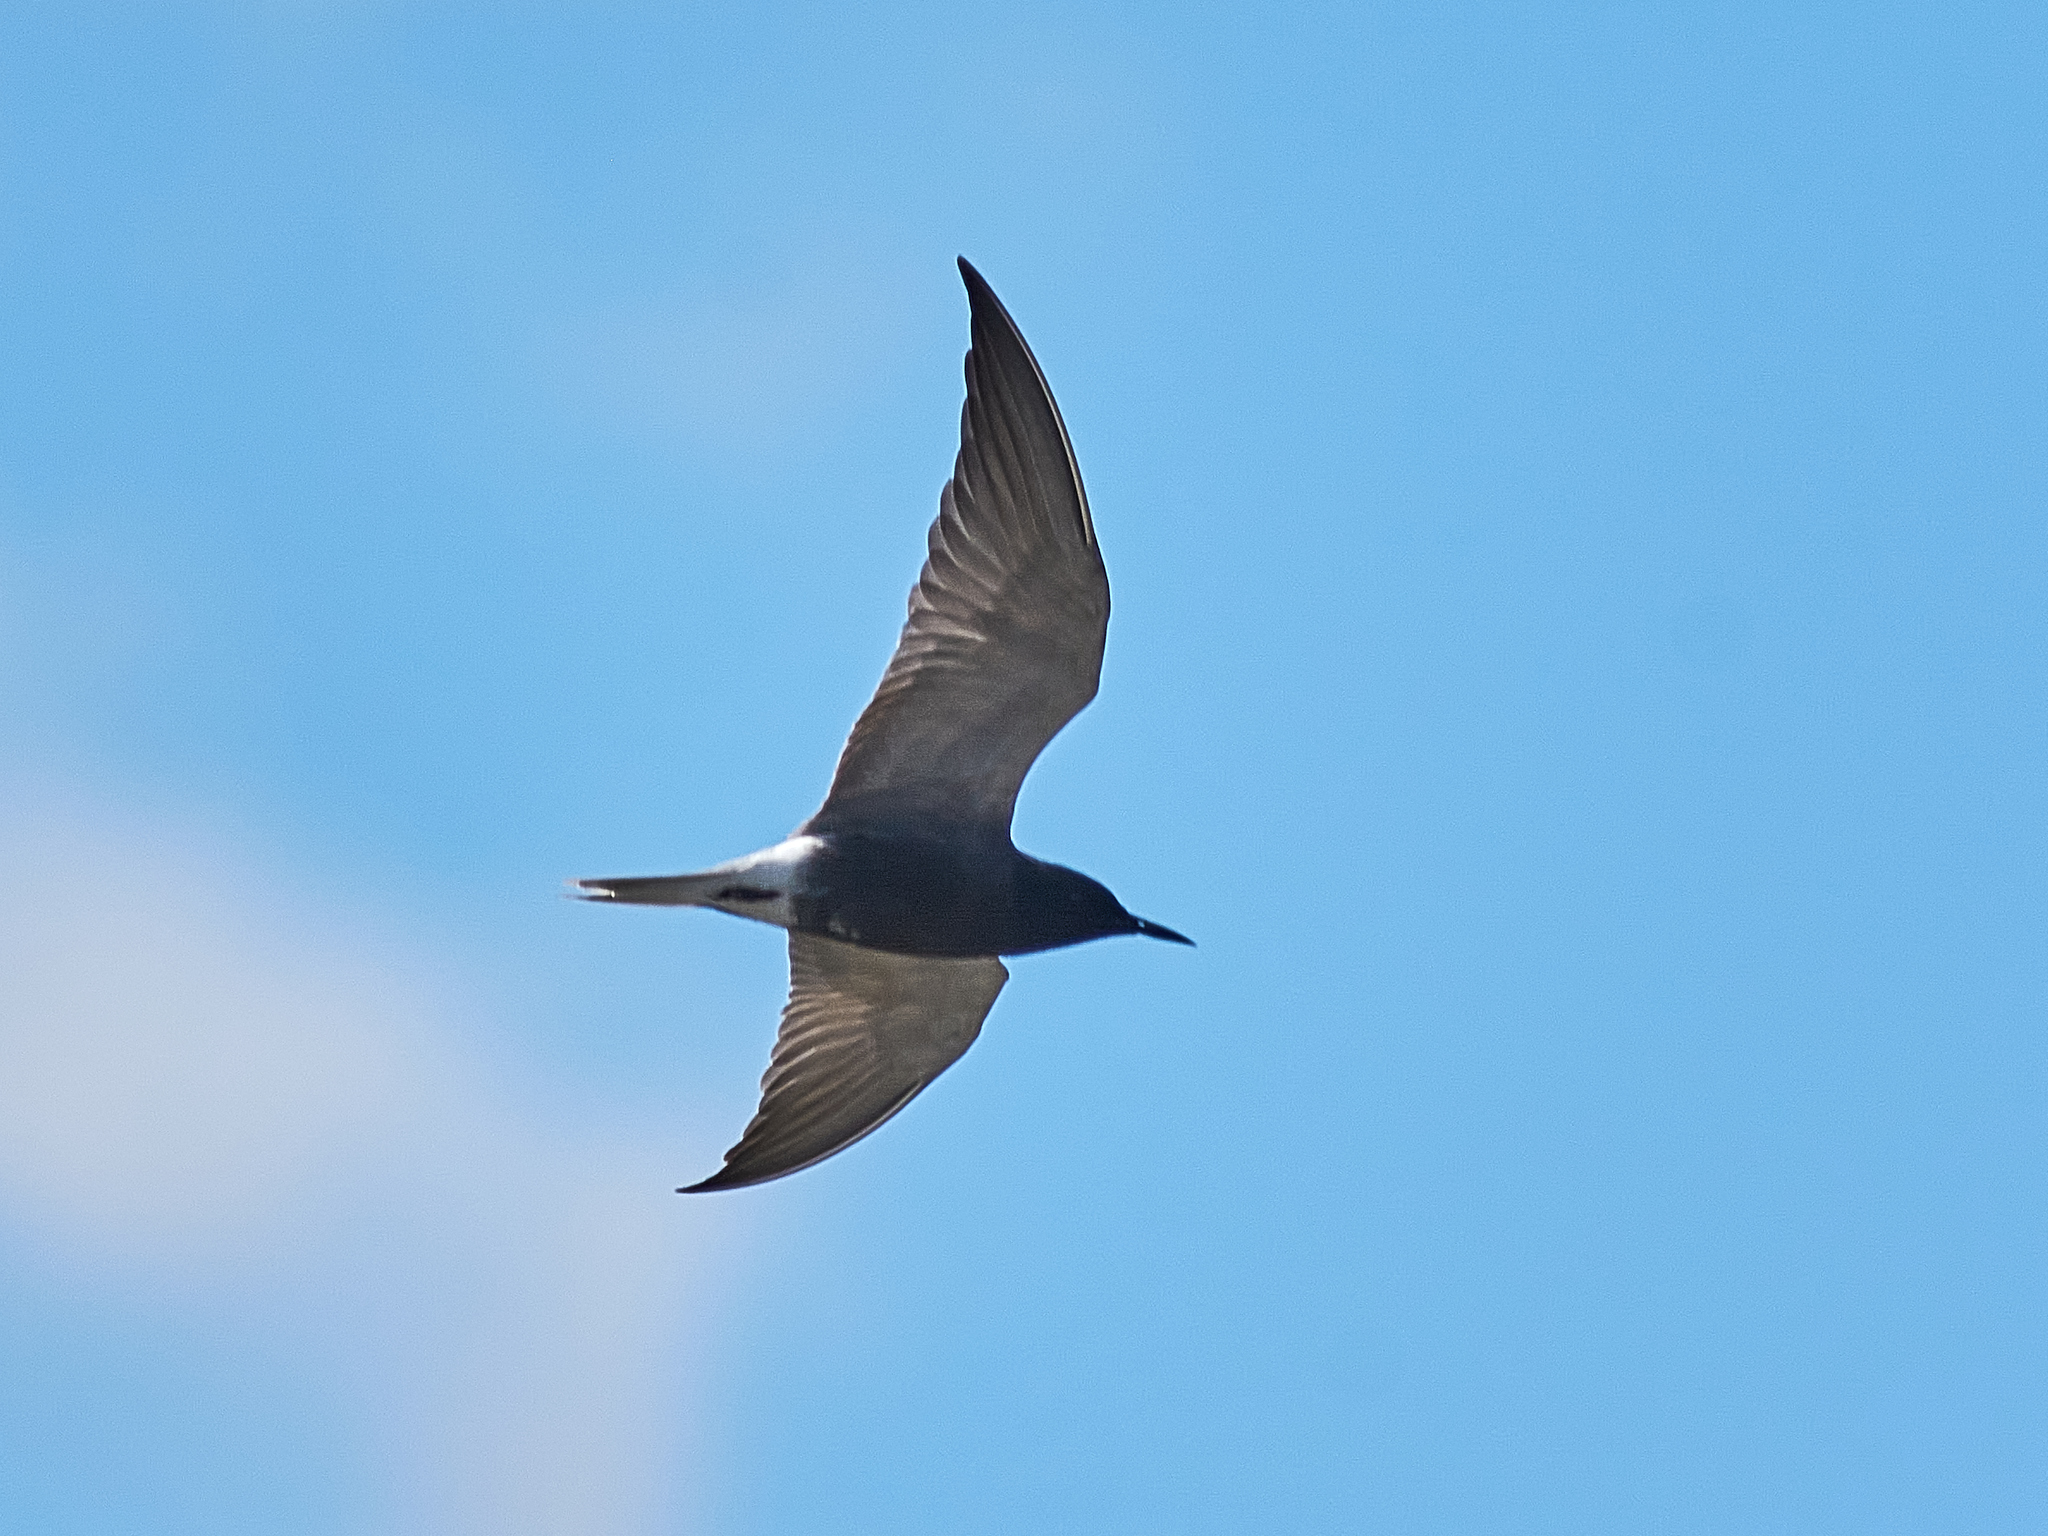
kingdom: Animalia
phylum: Chordata
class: Aves
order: Charadriiformes
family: Laridae
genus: Chlidonias
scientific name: Chlidonias niger
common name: Black tern
